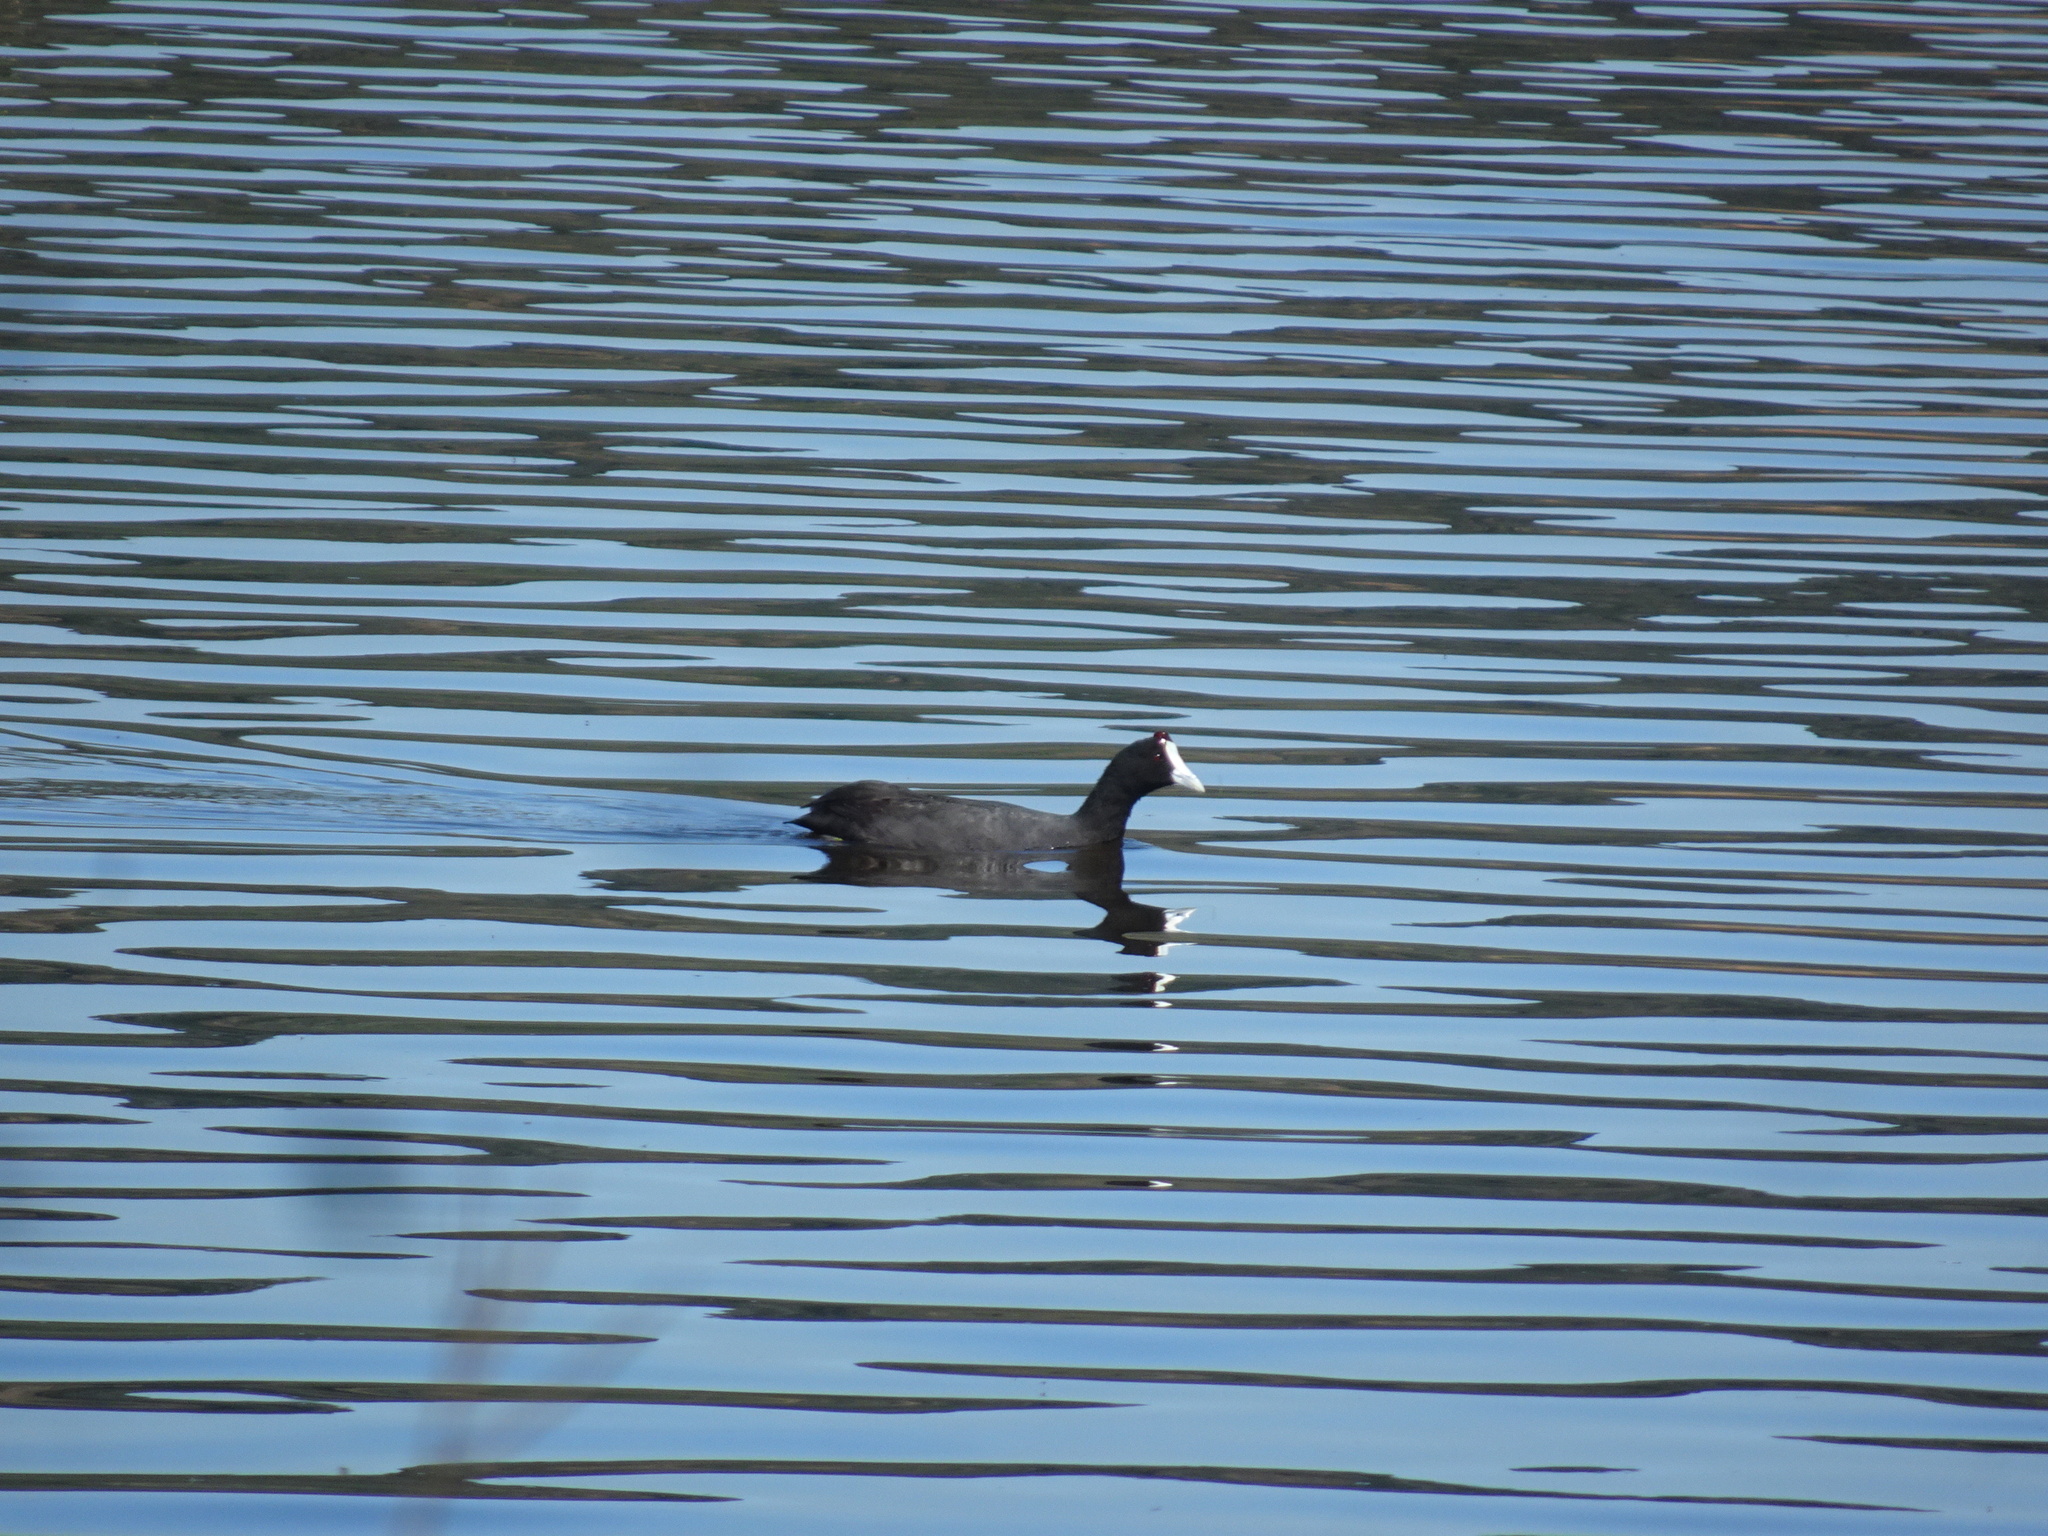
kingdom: Animalia
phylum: Chordata
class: Aves
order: Gruiformes
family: Rallidae
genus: Fulica
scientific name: Fulica cristata
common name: Red-knobbed coot
